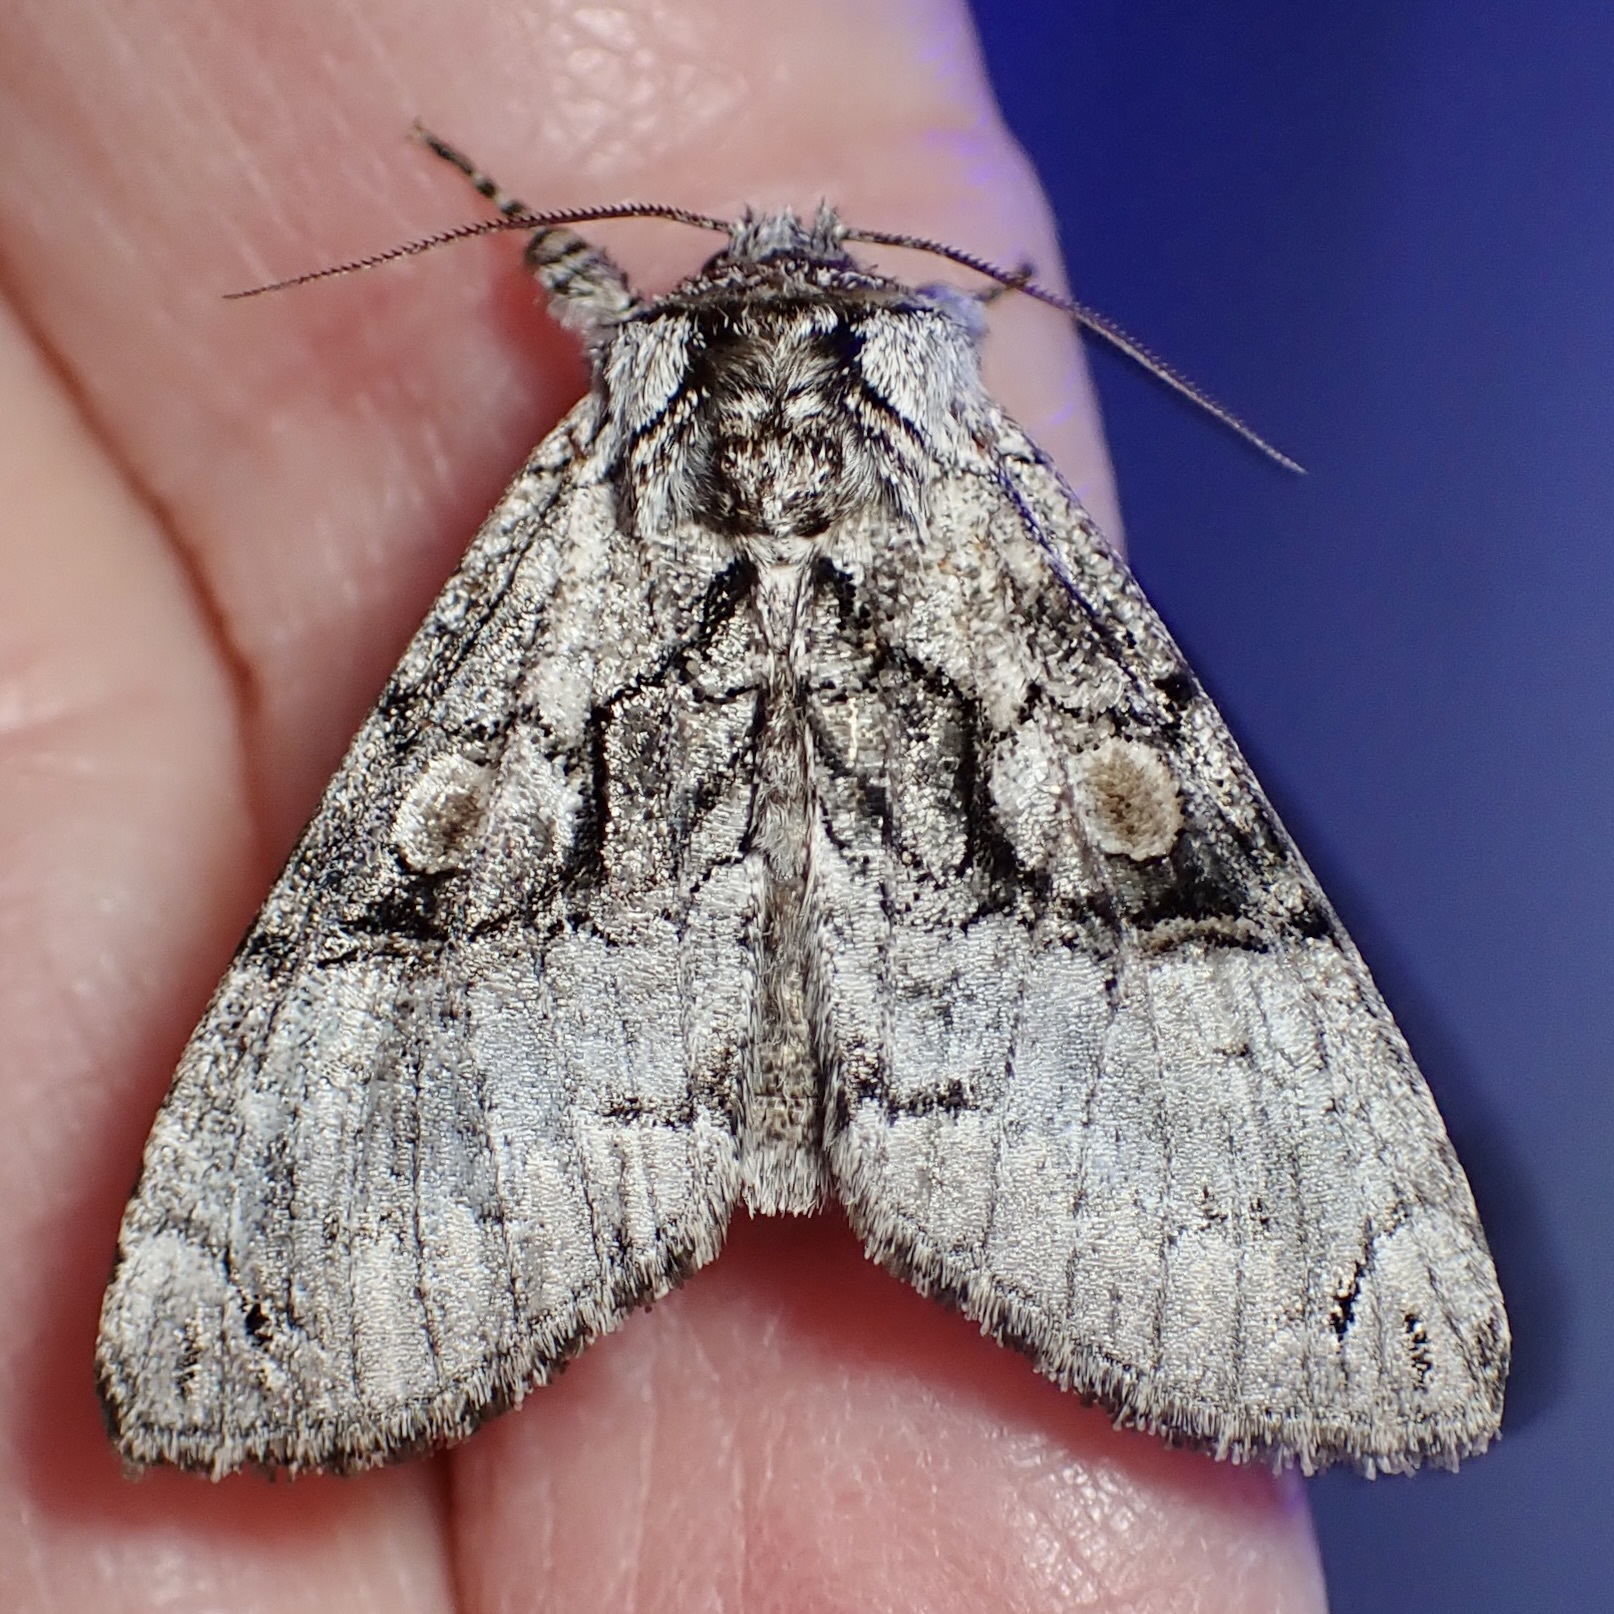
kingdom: Animalia
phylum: Arthropoda
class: Insecta
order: Lepidoptera
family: Noctuidae
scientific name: Noctuidae
